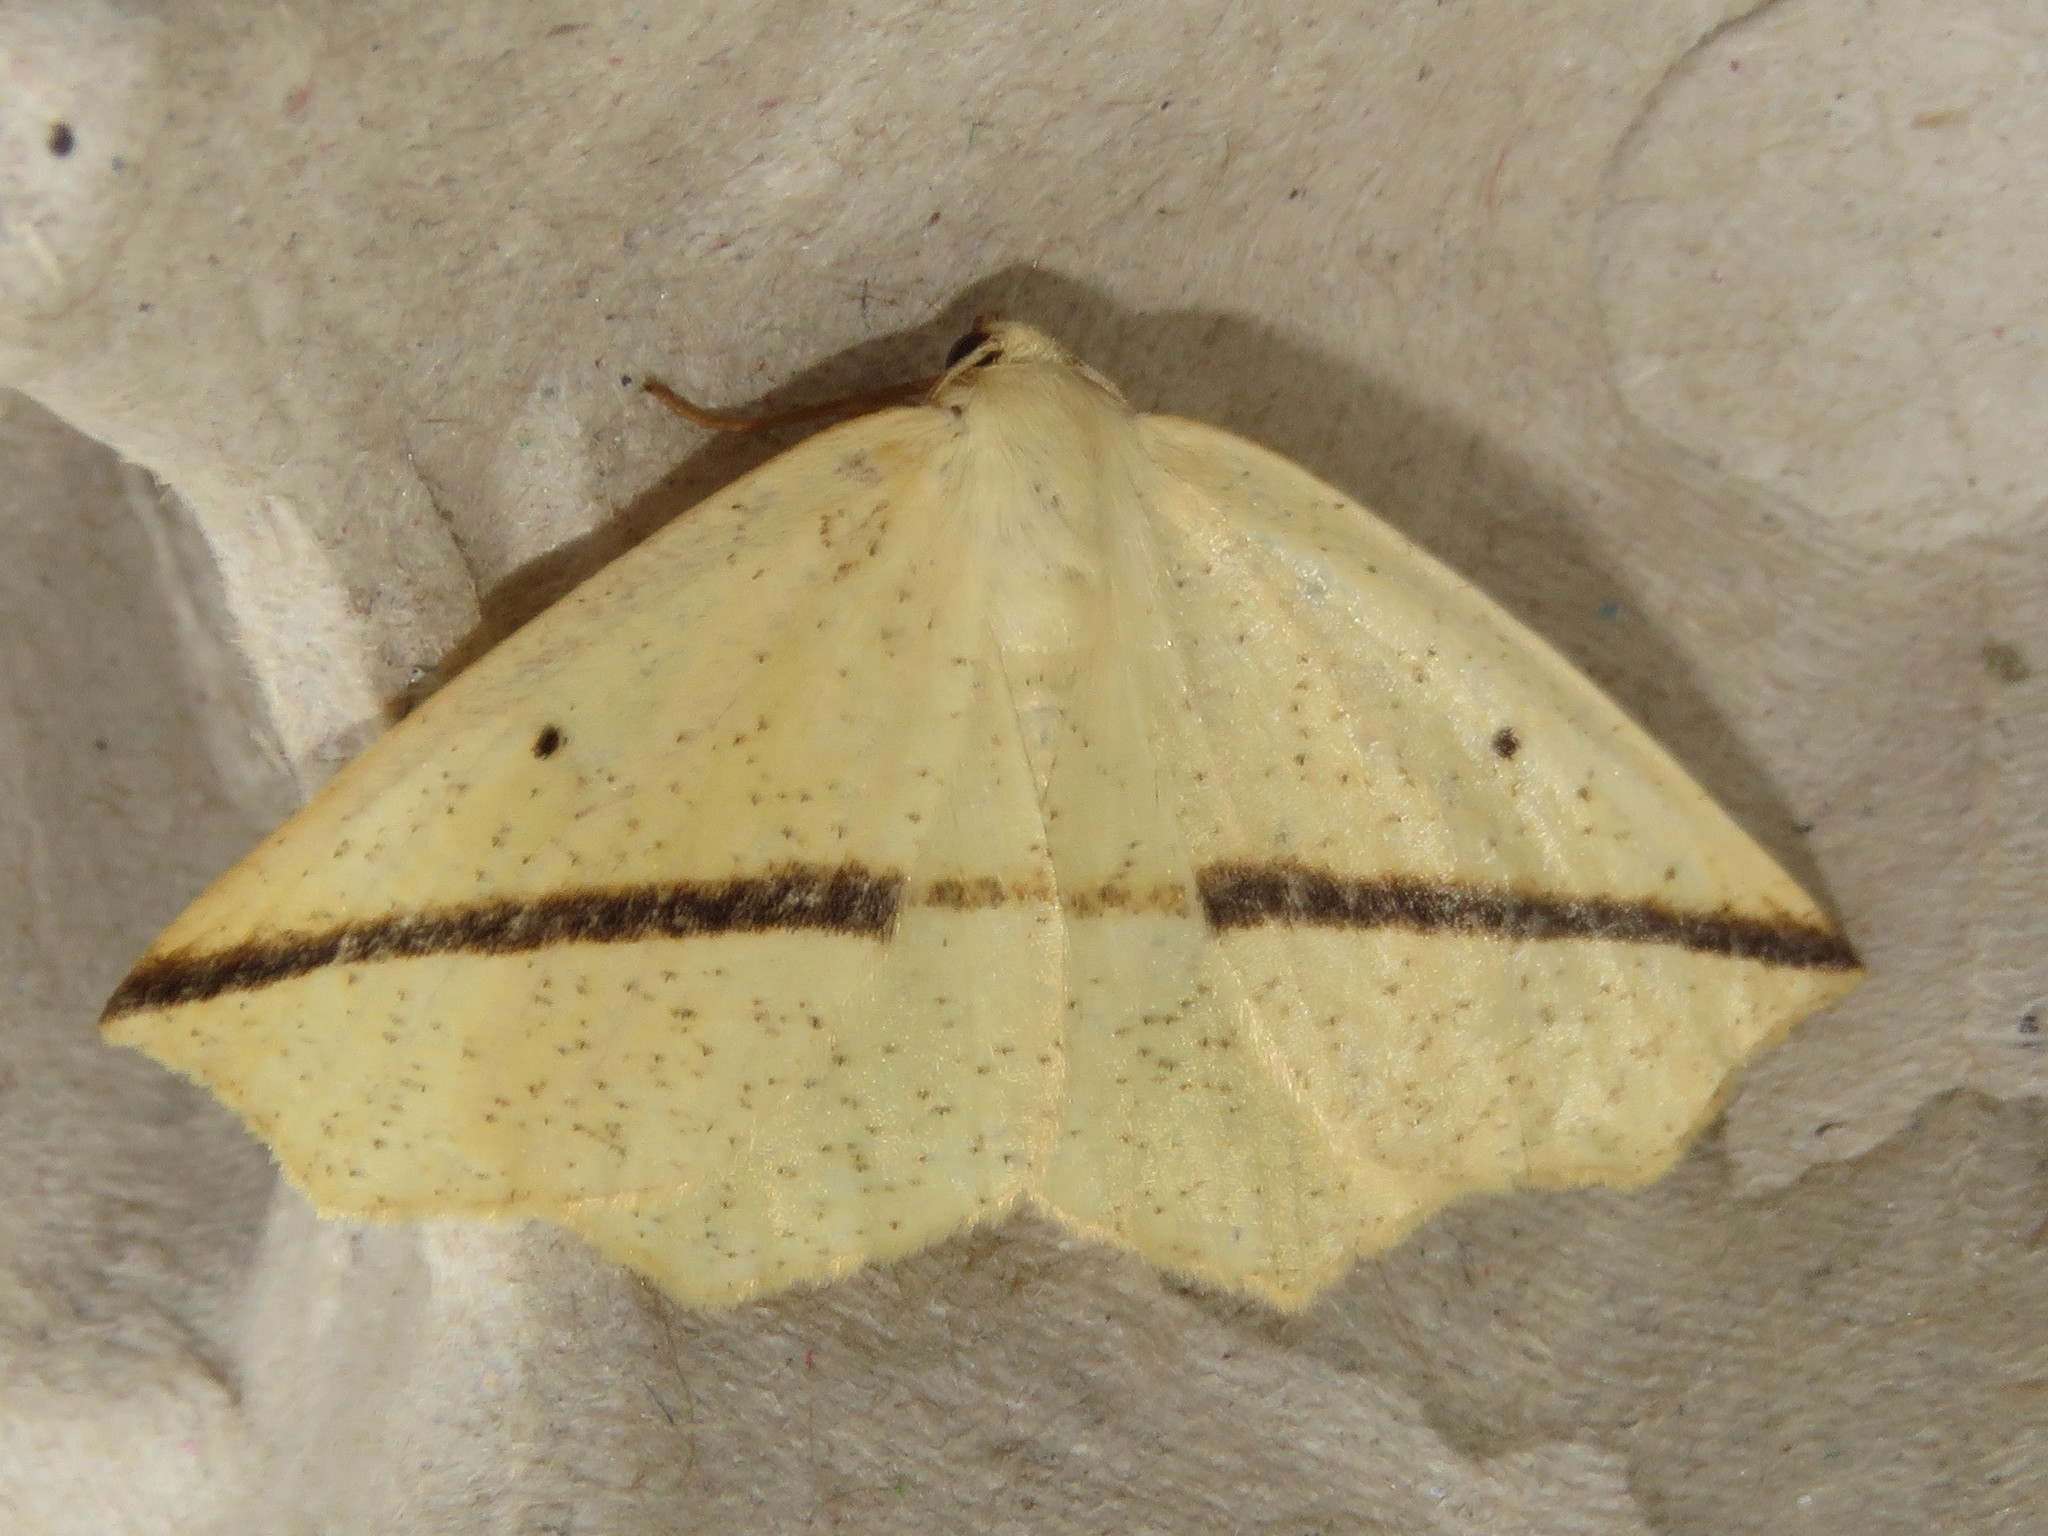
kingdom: Animalia
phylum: Arthropoda
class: Insecta
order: Lepidoptera
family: Geometridae
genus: Tetracis
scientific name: Tetracis crocallata
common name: Yellow slant-line
